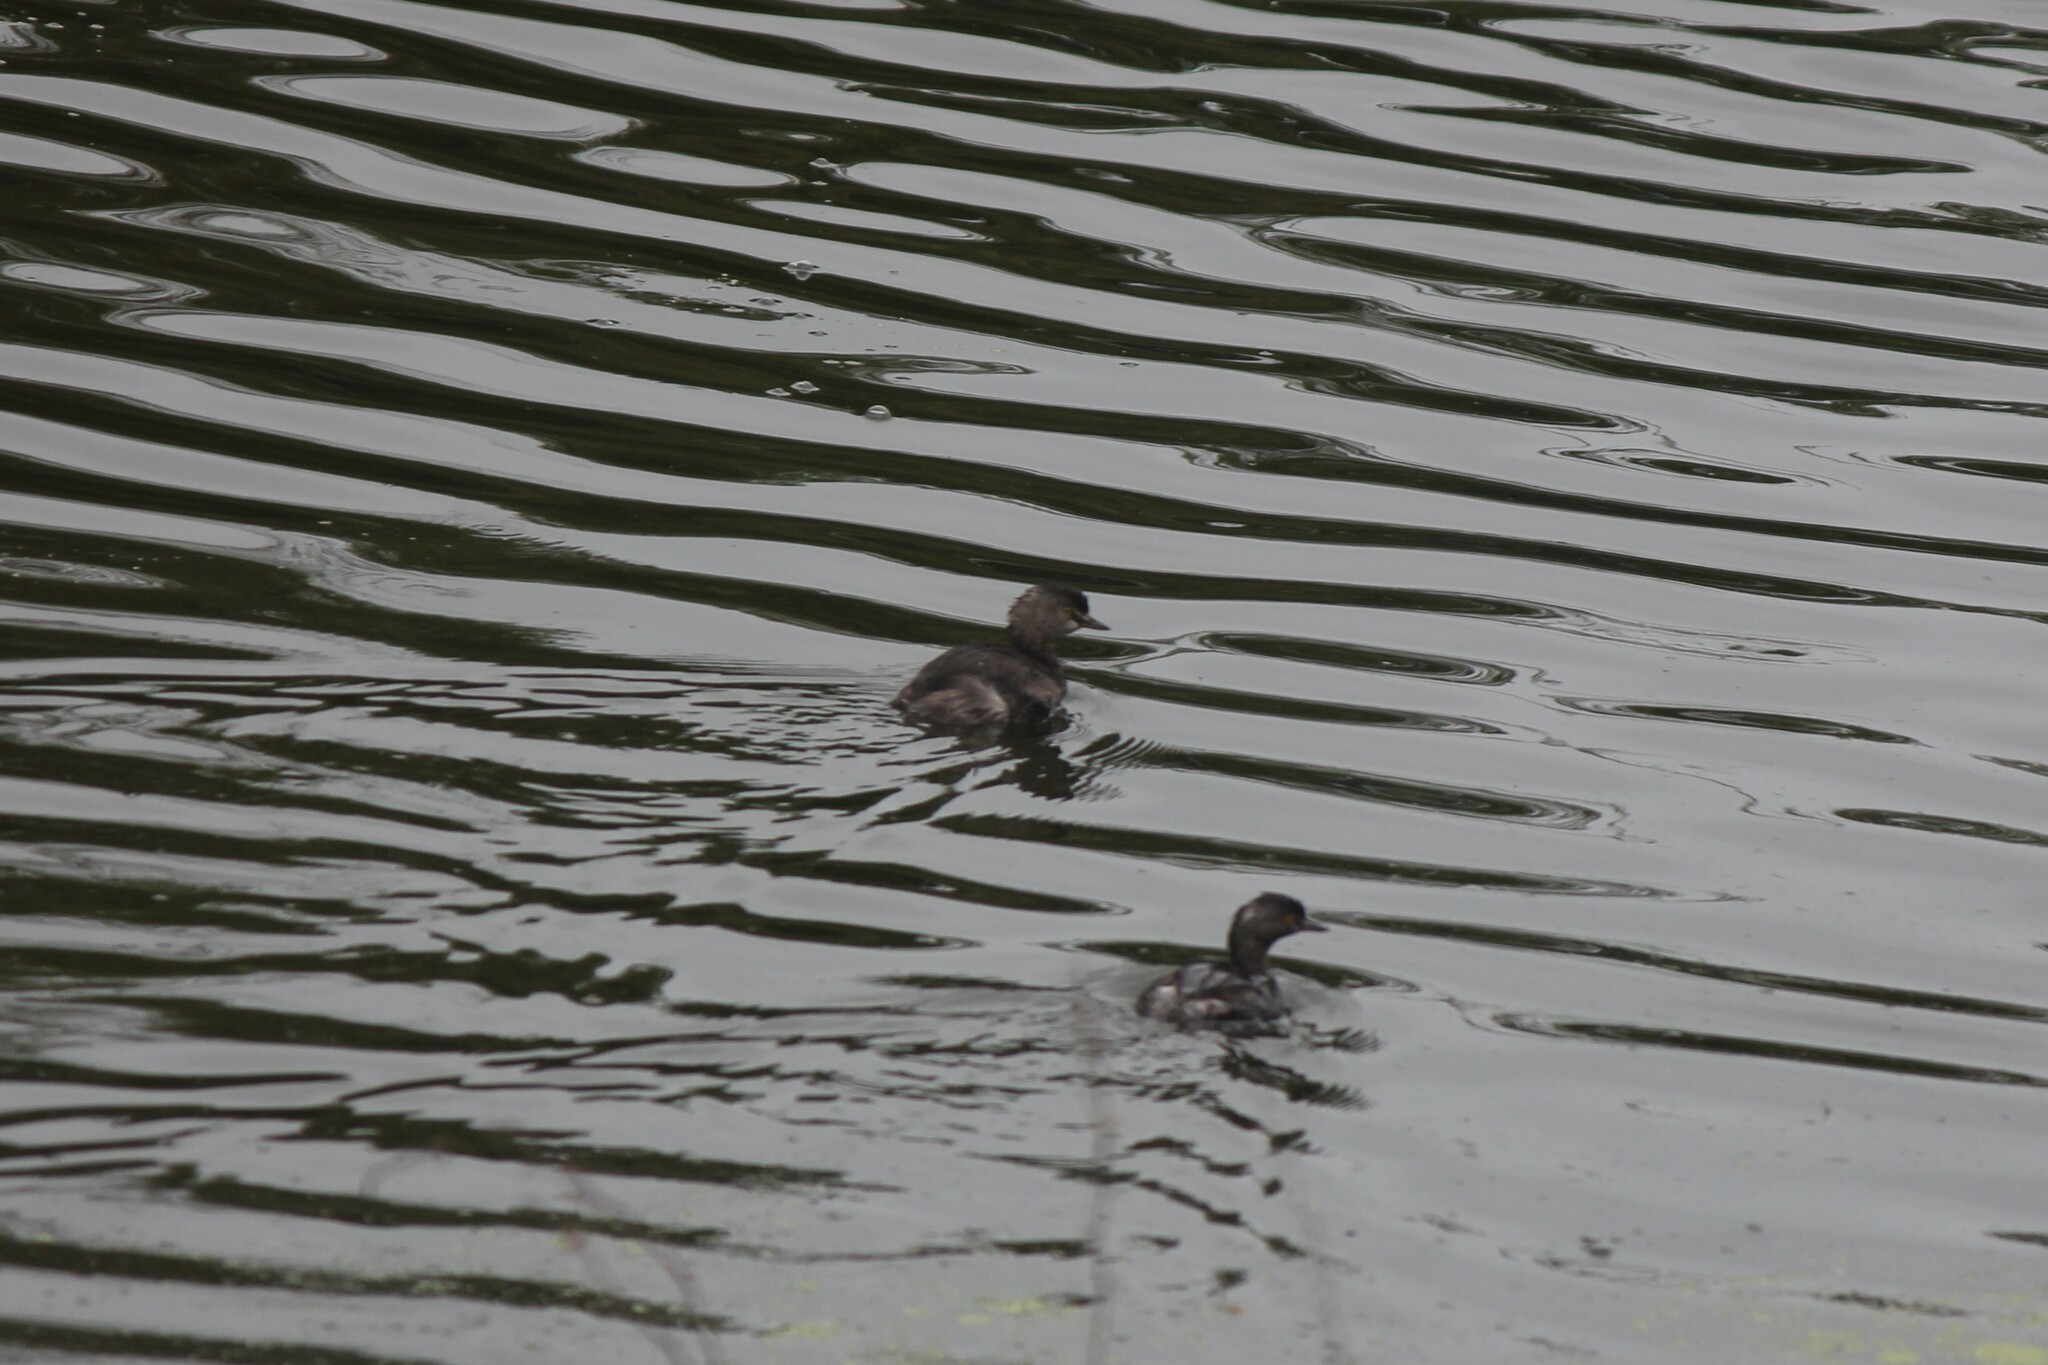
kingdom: Animalia
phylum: Chordata
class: Aves
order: Podicipediformes
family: Podicipedidae
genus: Tachybaptus
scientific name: Tachybaptus dominicus
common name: Least grebe
